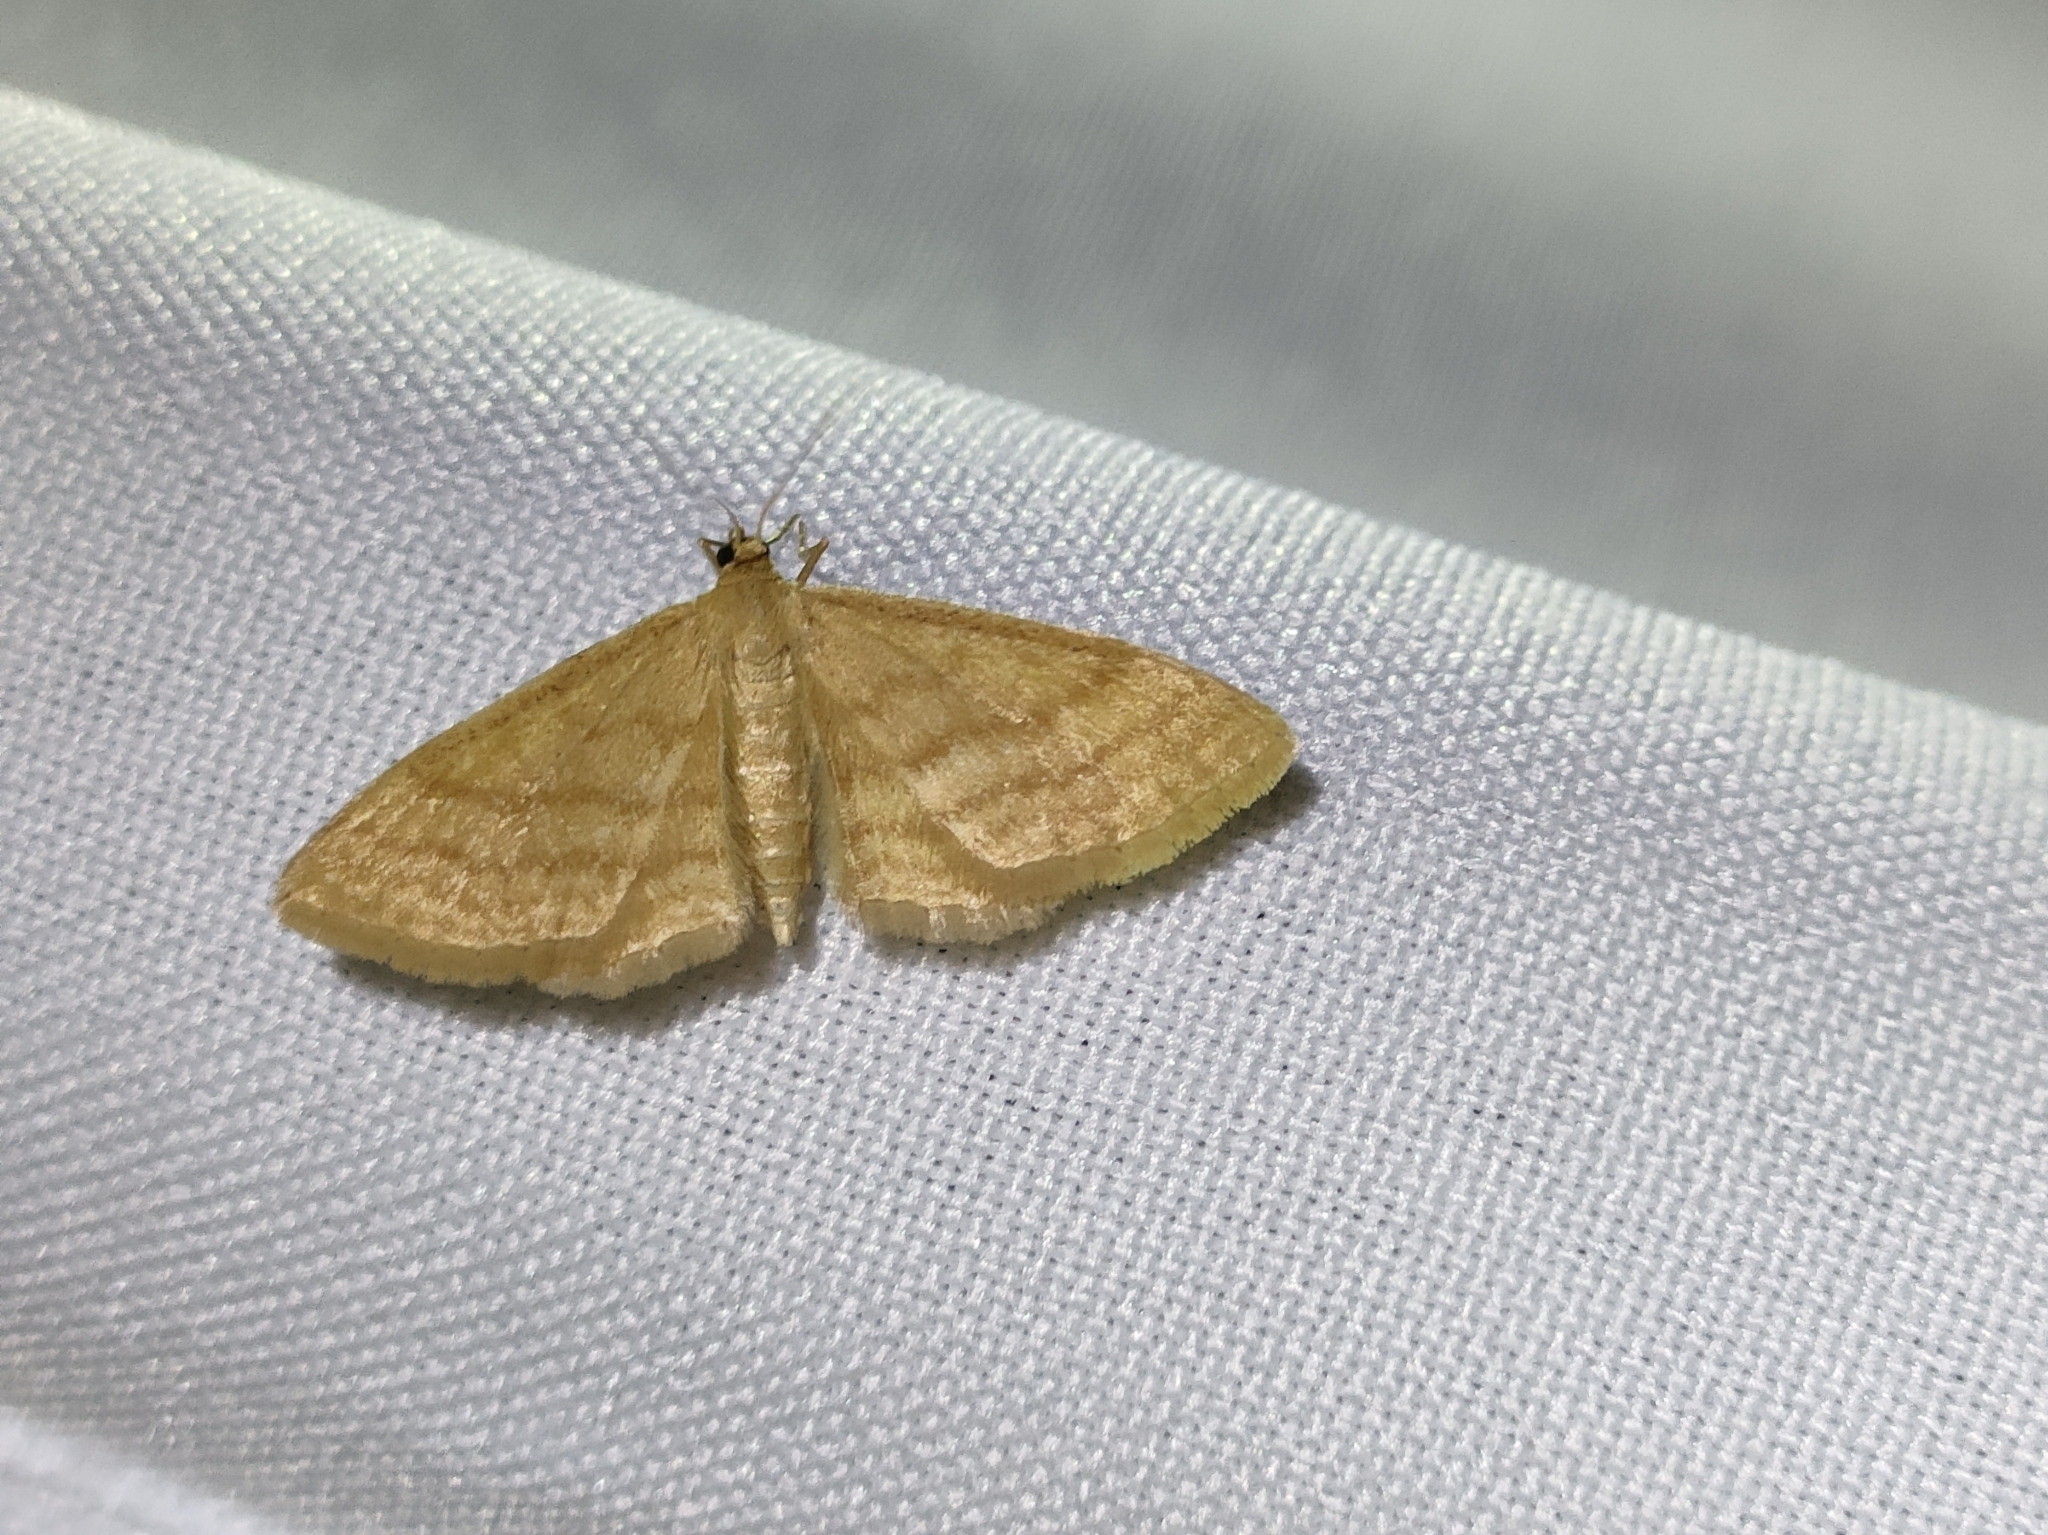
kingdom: Animalia
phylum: Arthropoda
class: Insecta
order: Lepidoptera
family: Geometridae
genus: Idaea
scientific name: Idaea ochrata
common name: Bright wave
